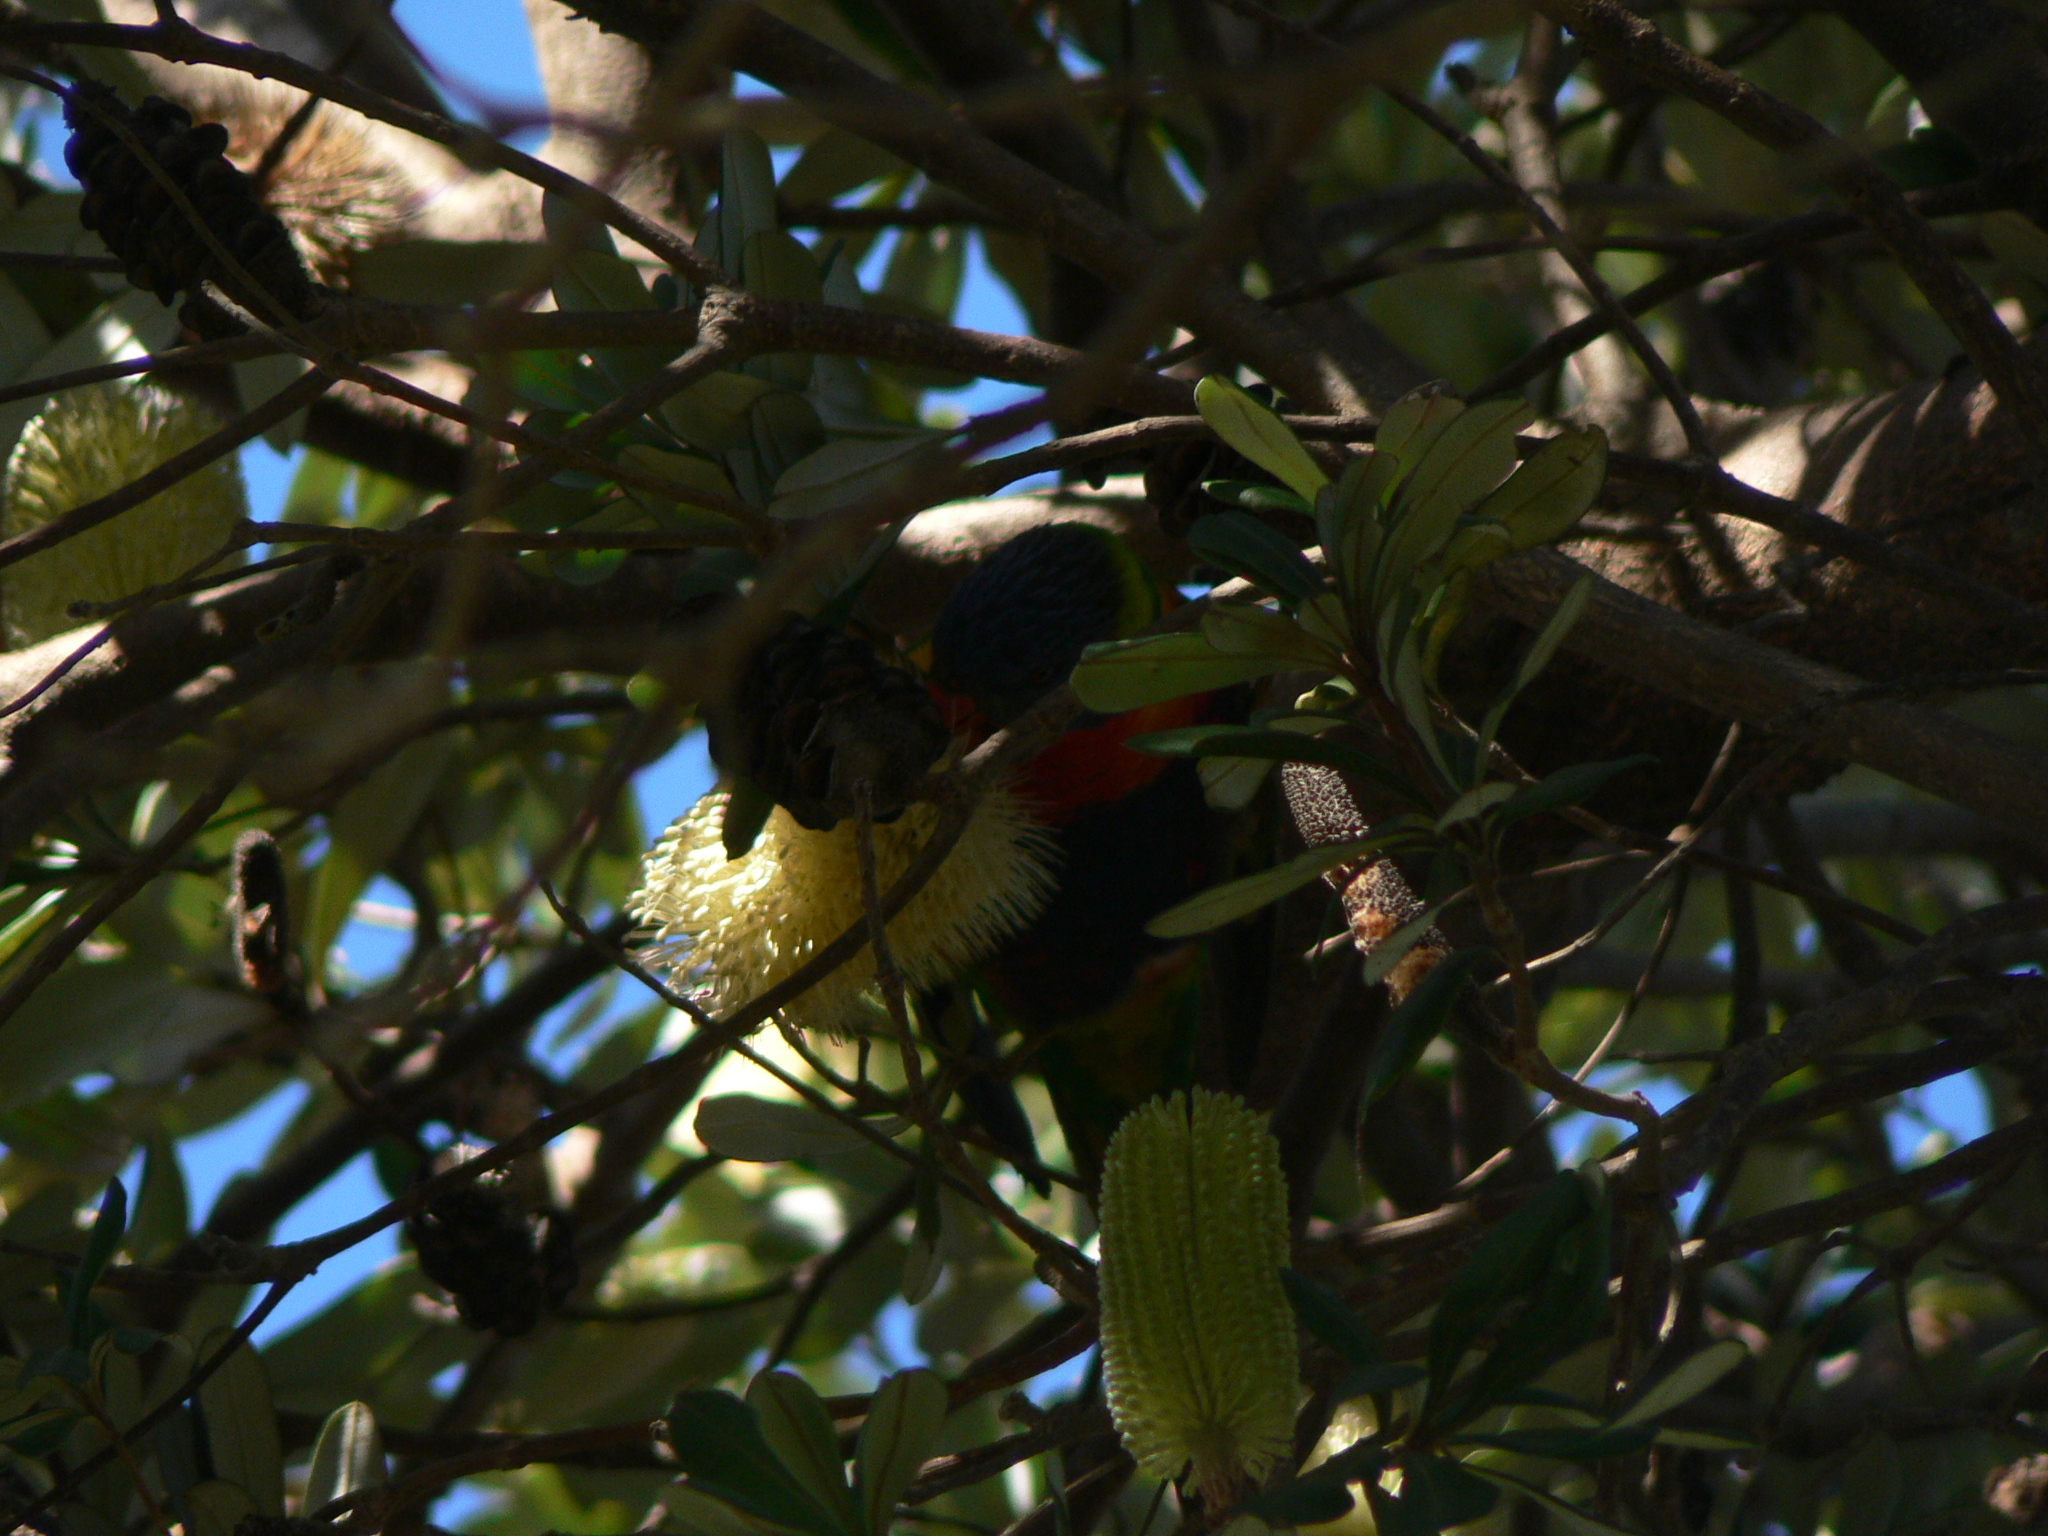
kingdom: Animalia
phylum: Chordata
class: Aves
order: Psittaciformes
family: Psittacidae
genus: Trichoglossus
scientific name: Trichoglossus haematodus
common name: Coconut lorikeet
